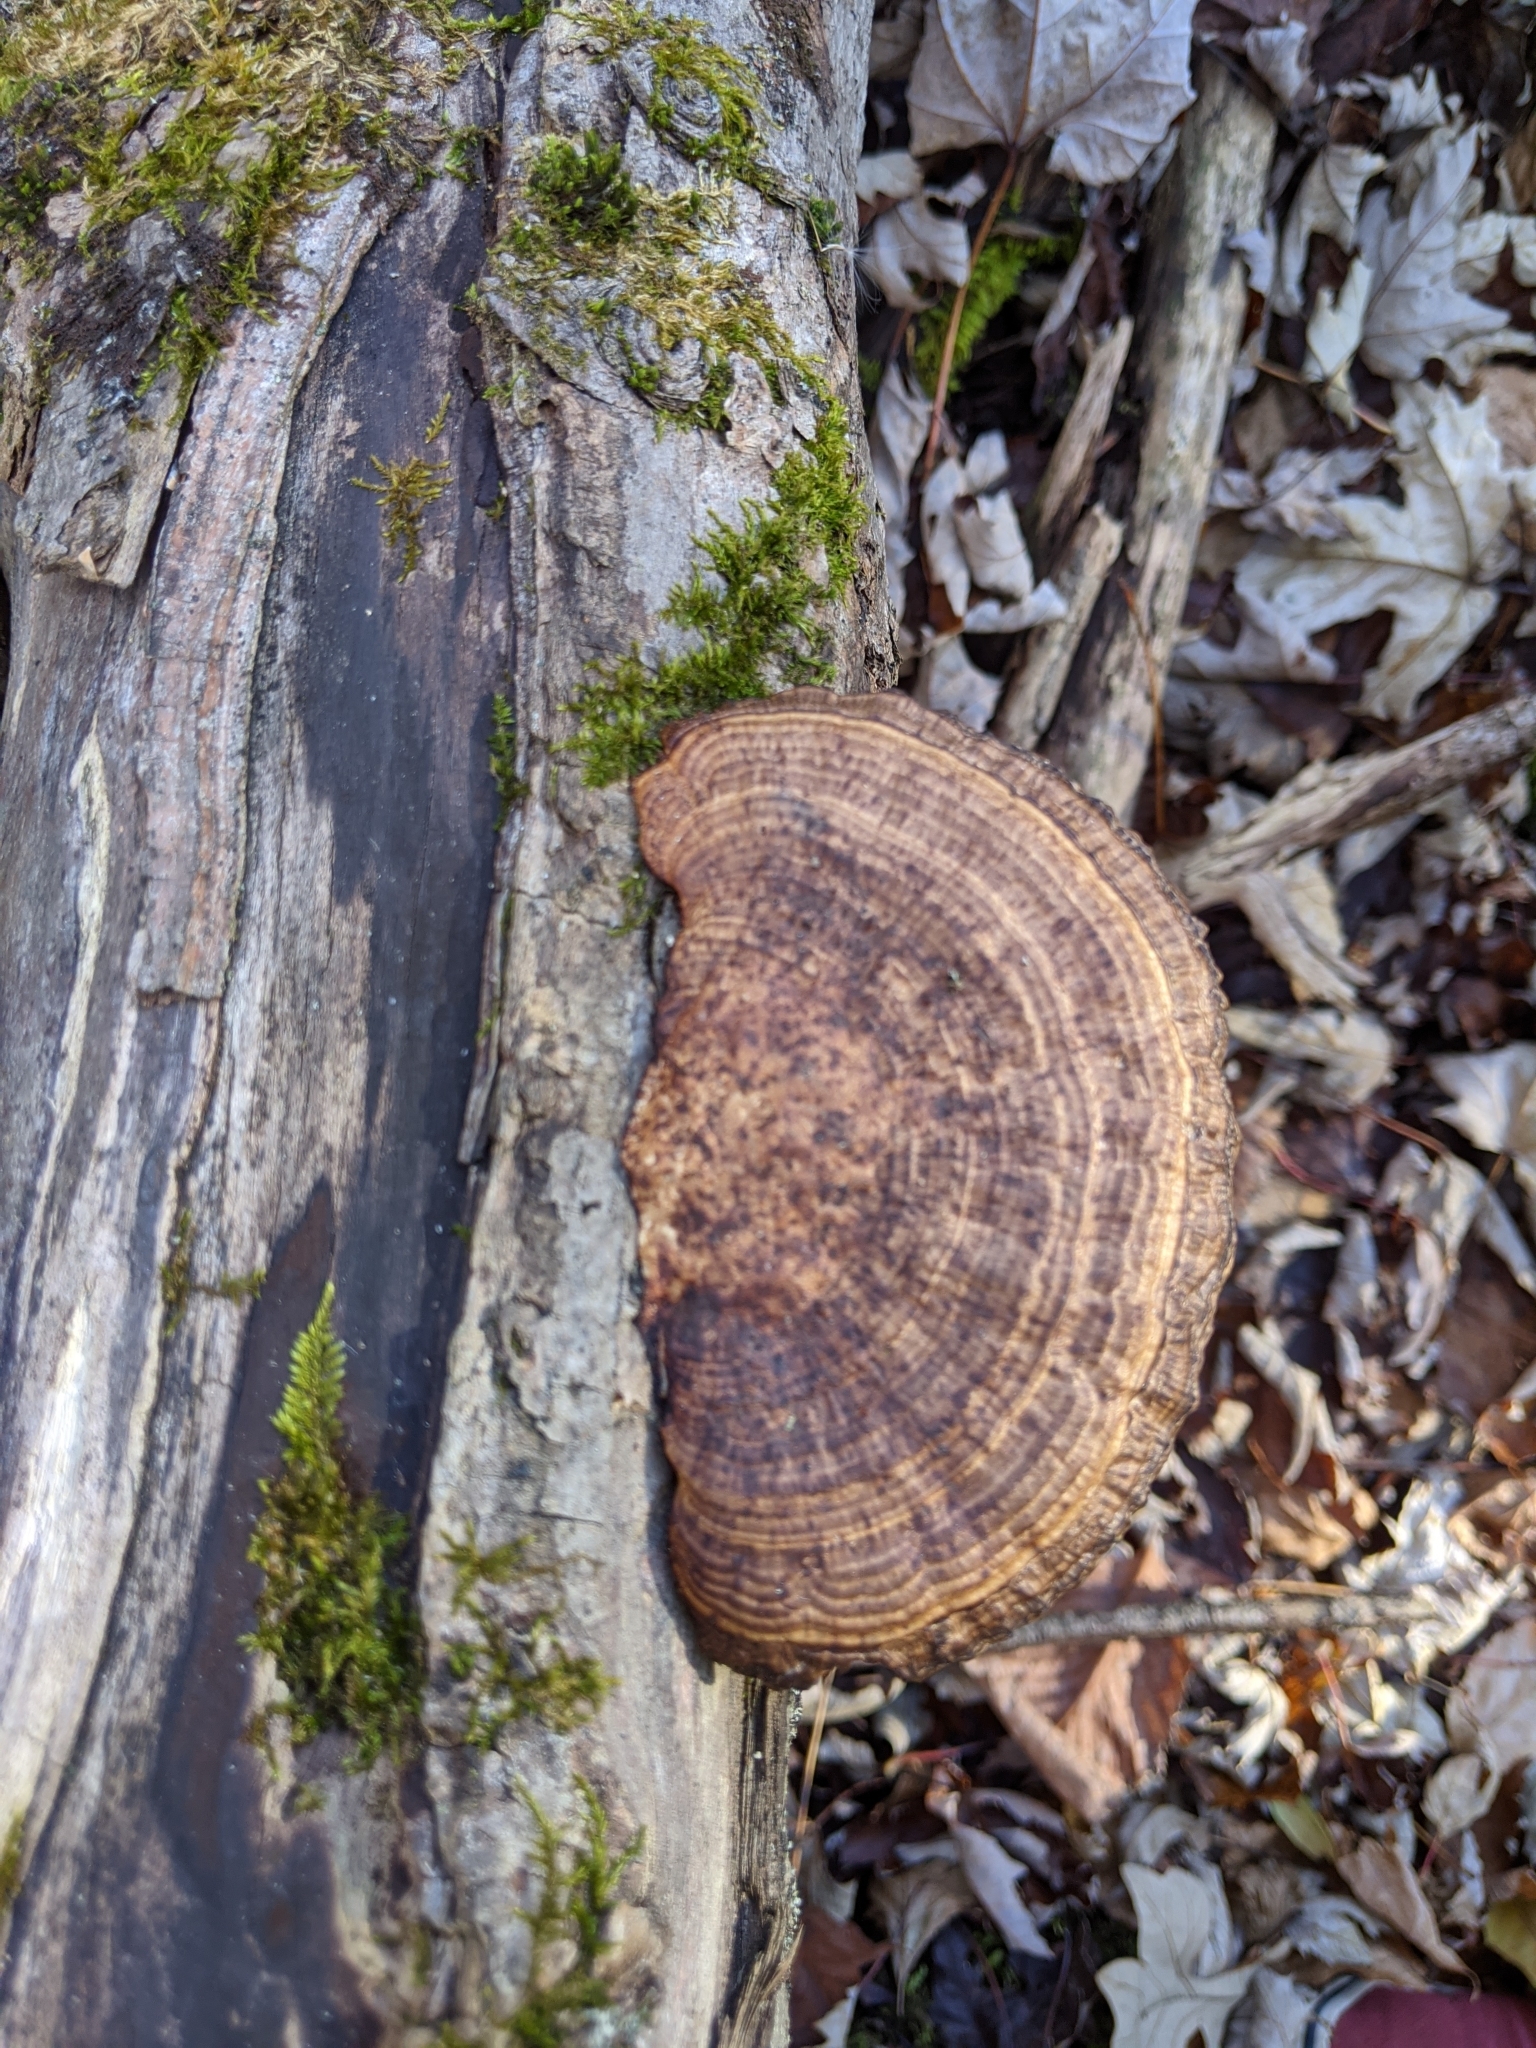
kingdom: Fungi
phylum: Basidiomycota
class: Agaricomycetes
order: Polyporales
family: Polyporaceae
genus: Daedaleopsis
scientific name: Daedaleopsis confragosa
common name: Blushing bracket
